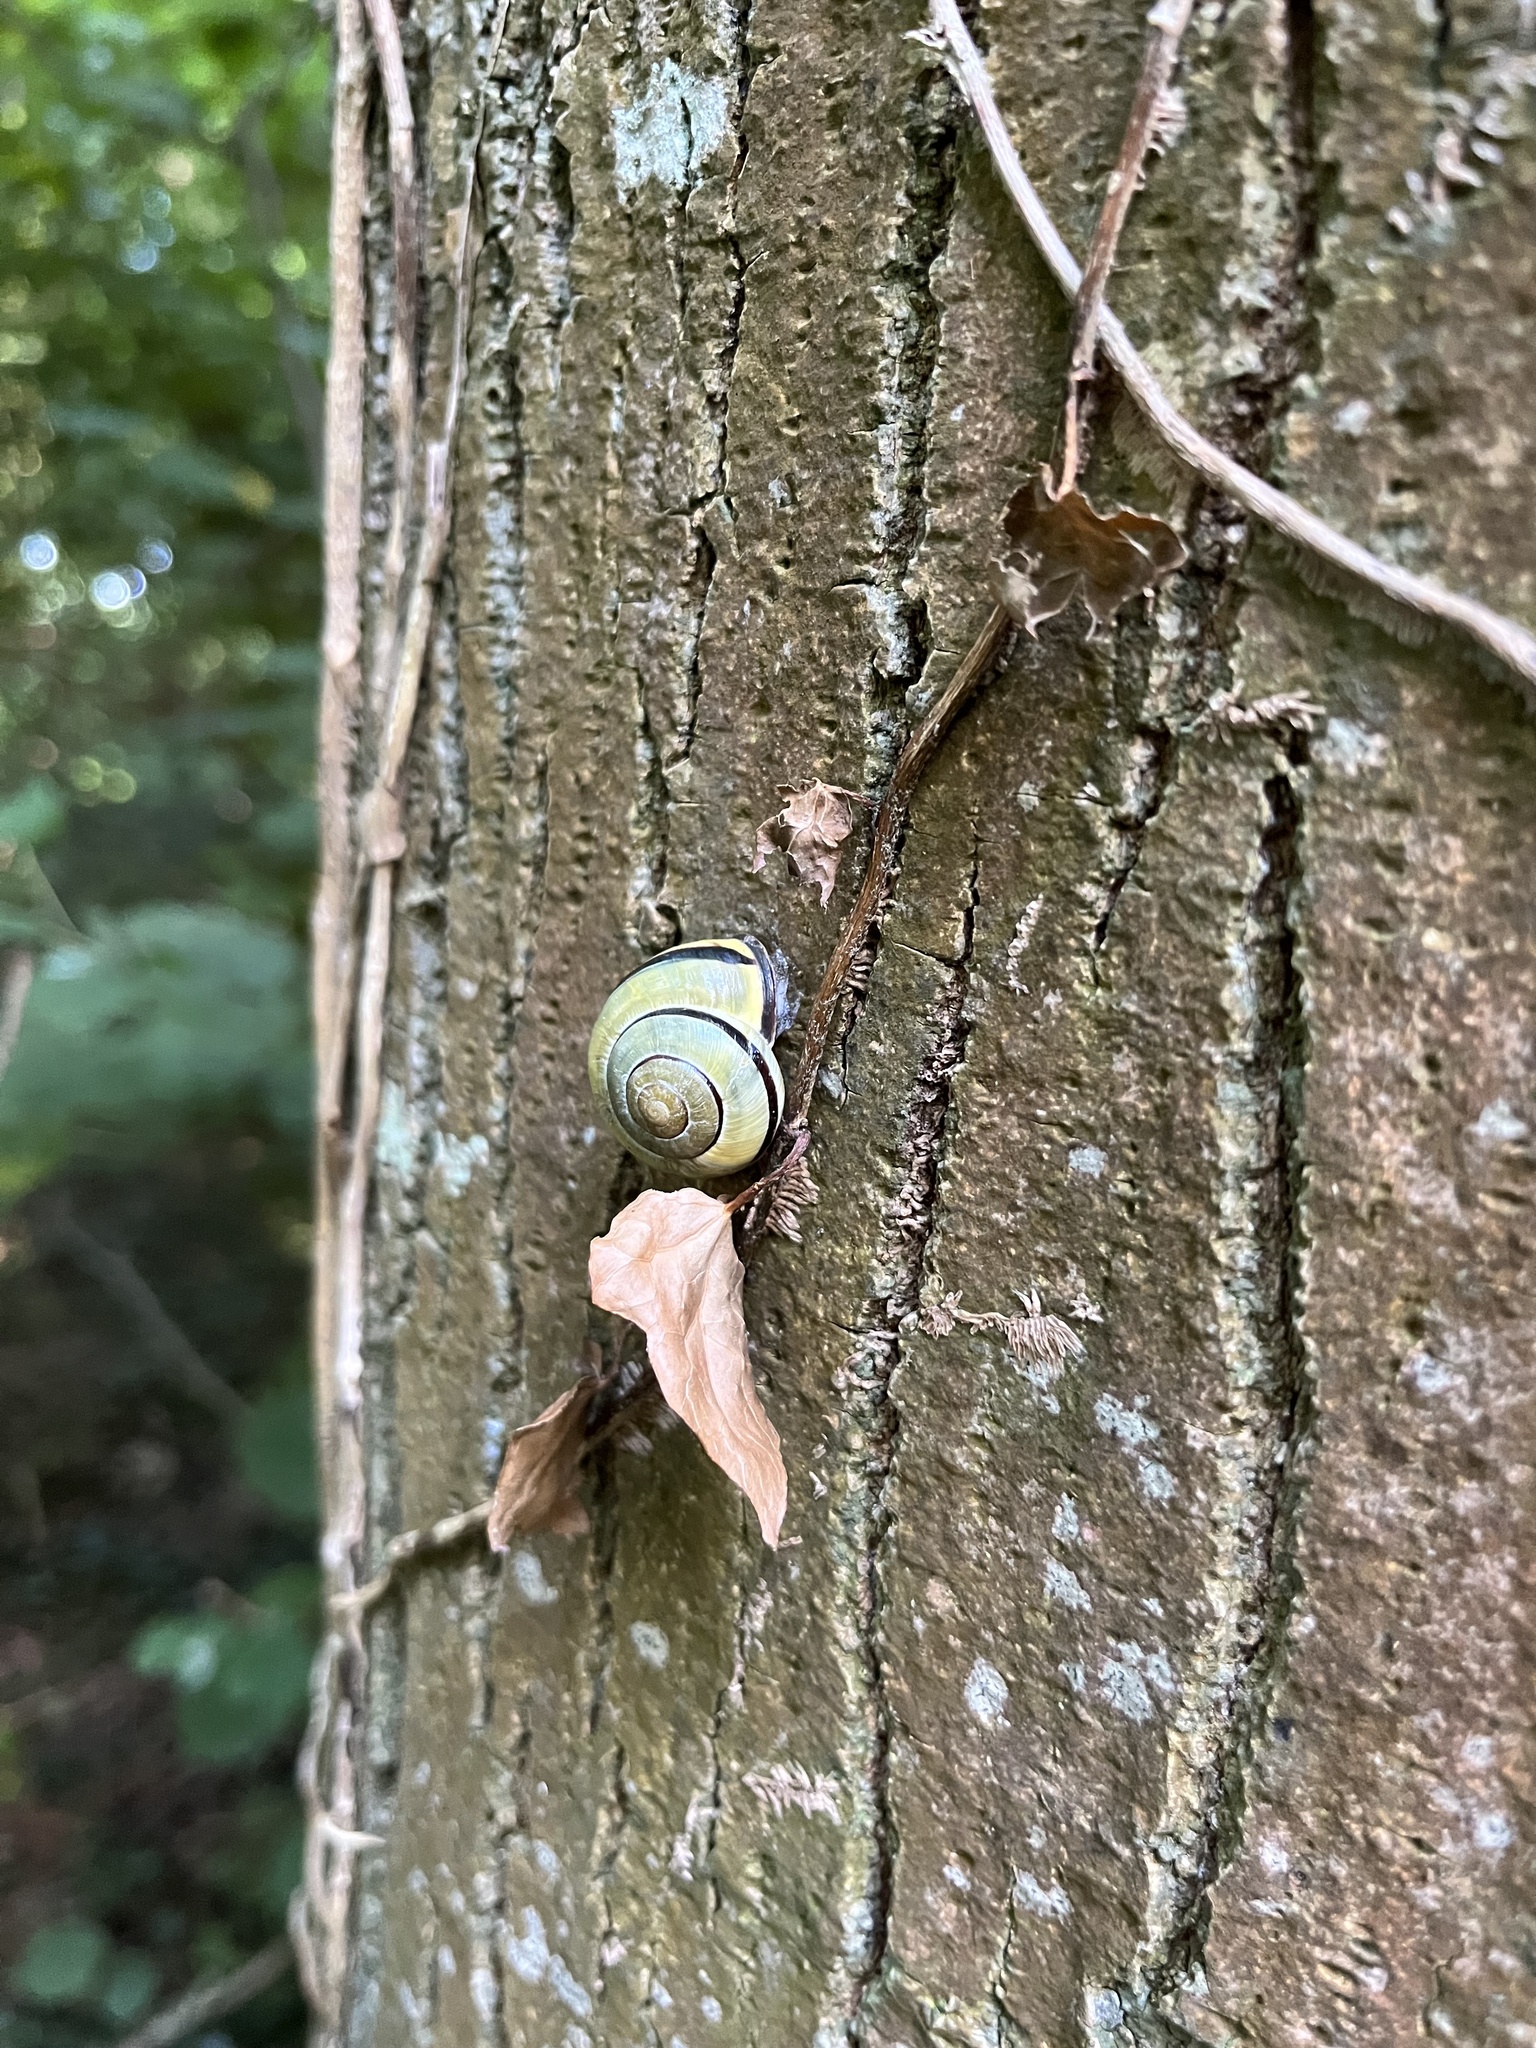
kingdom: Animalia
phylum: Mollusca
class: Gastropoda
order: Stylommatophora
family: Helicidae
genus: Cepaea
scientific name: Cepaea nemoralis
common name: Grovesnail
